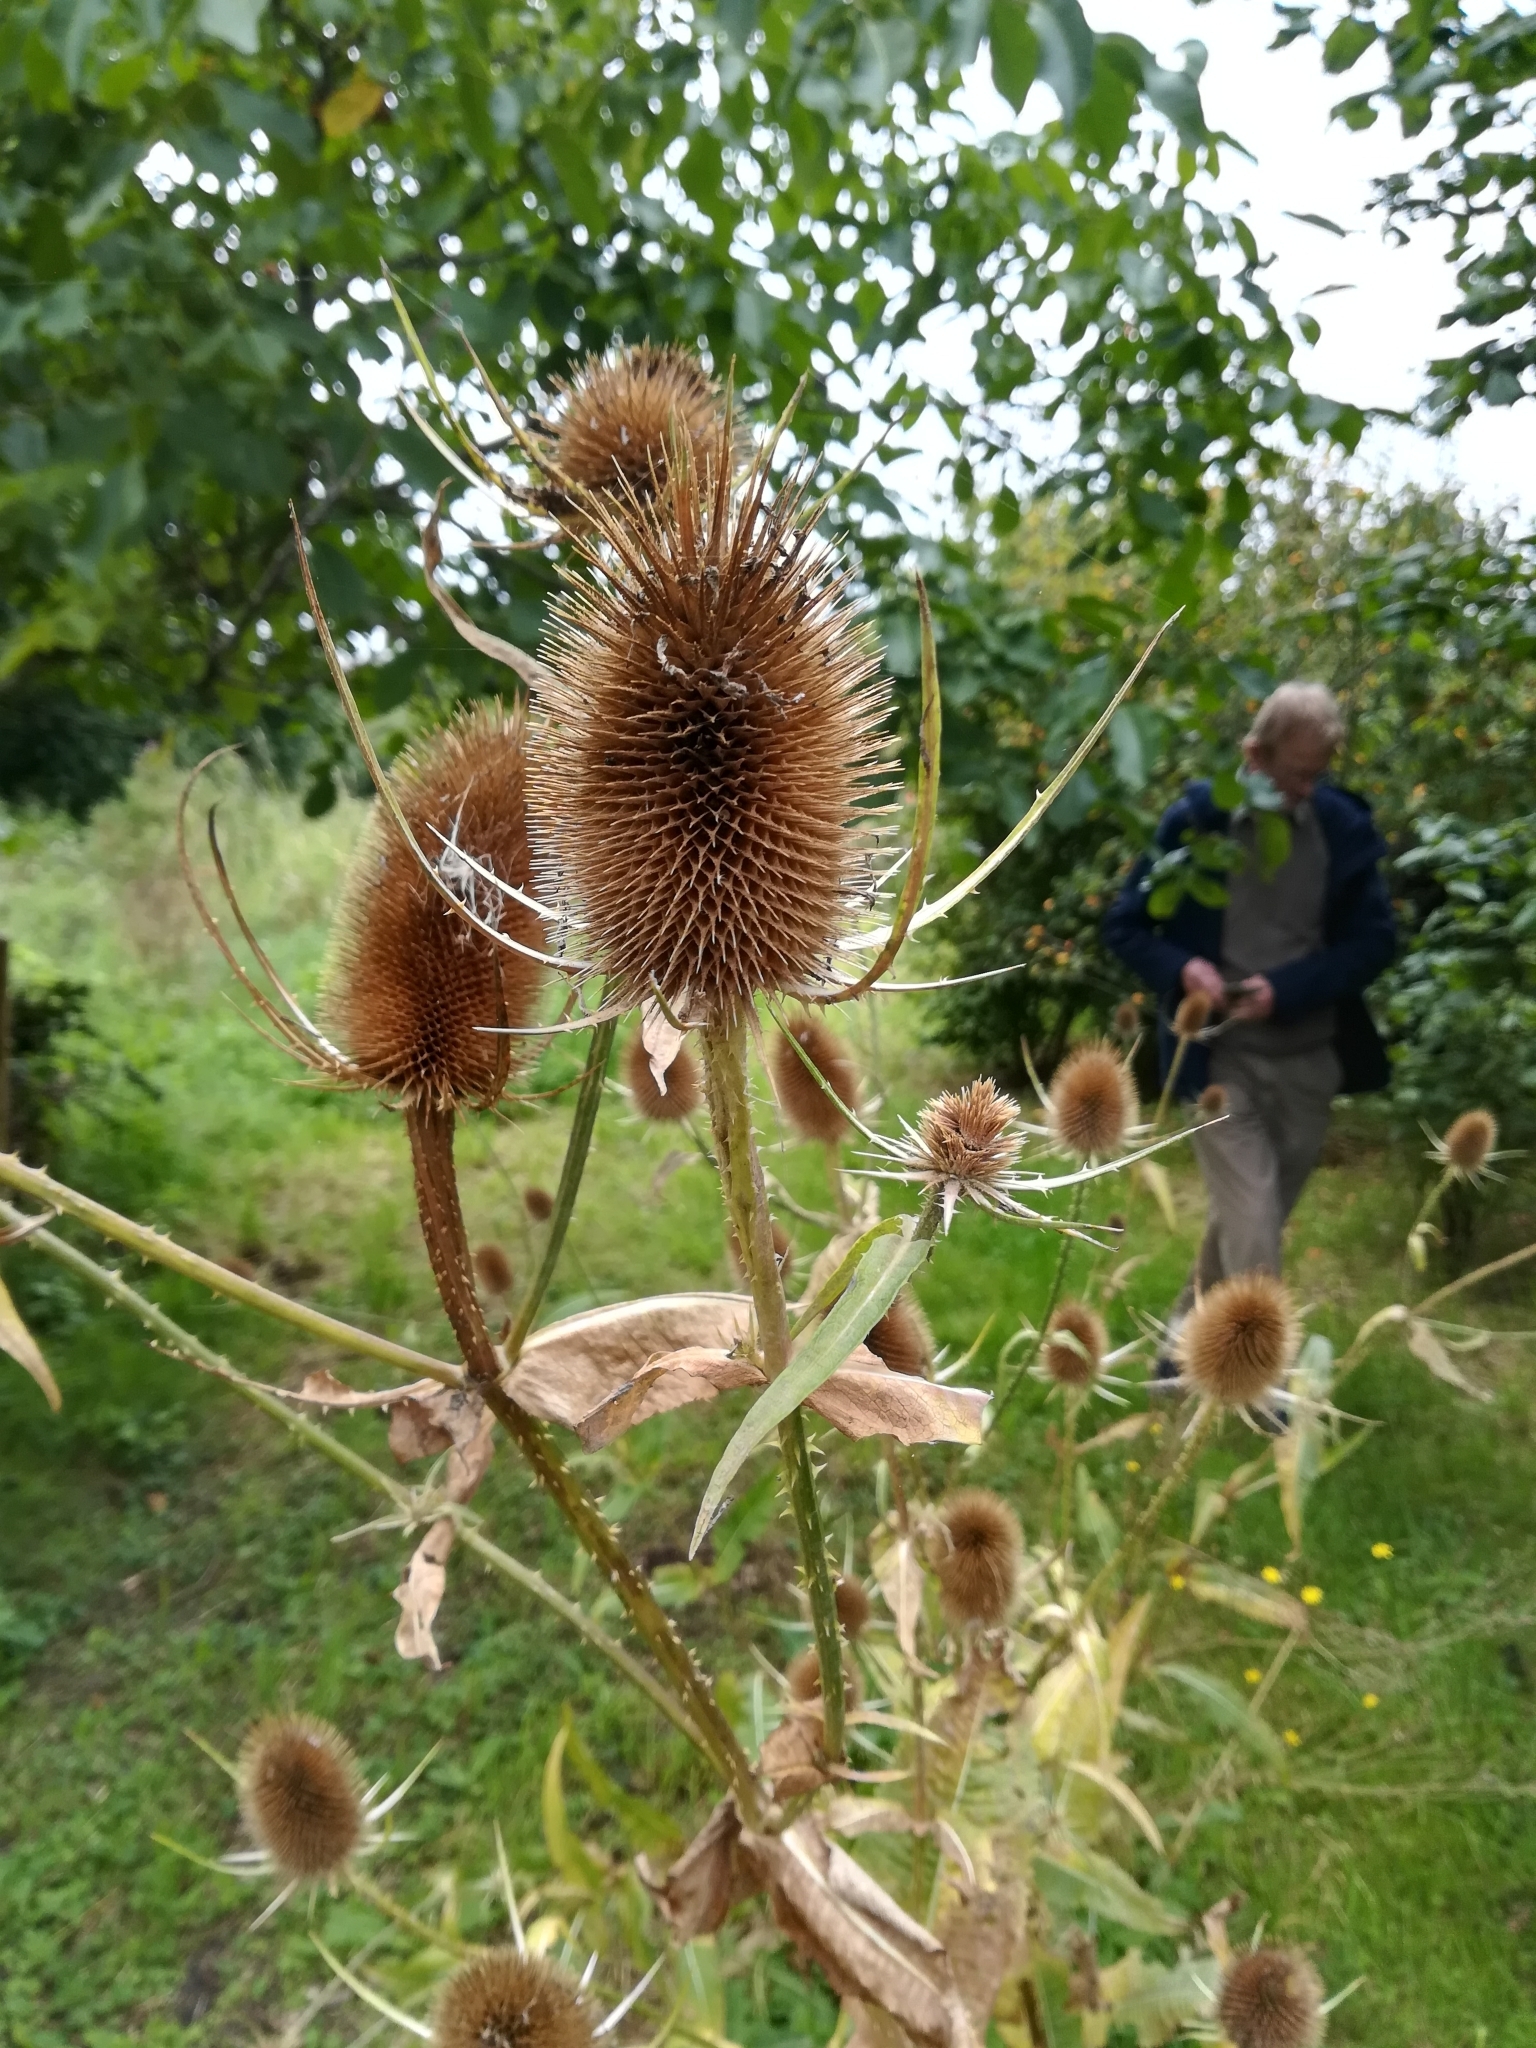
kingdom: Plantae
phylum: Tracheophyta
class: Magnoliopsida
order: Dipsacales
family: Caprifoliaceae
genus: Dipsacus
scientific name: Dipsacus fullonum
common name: Teasel
